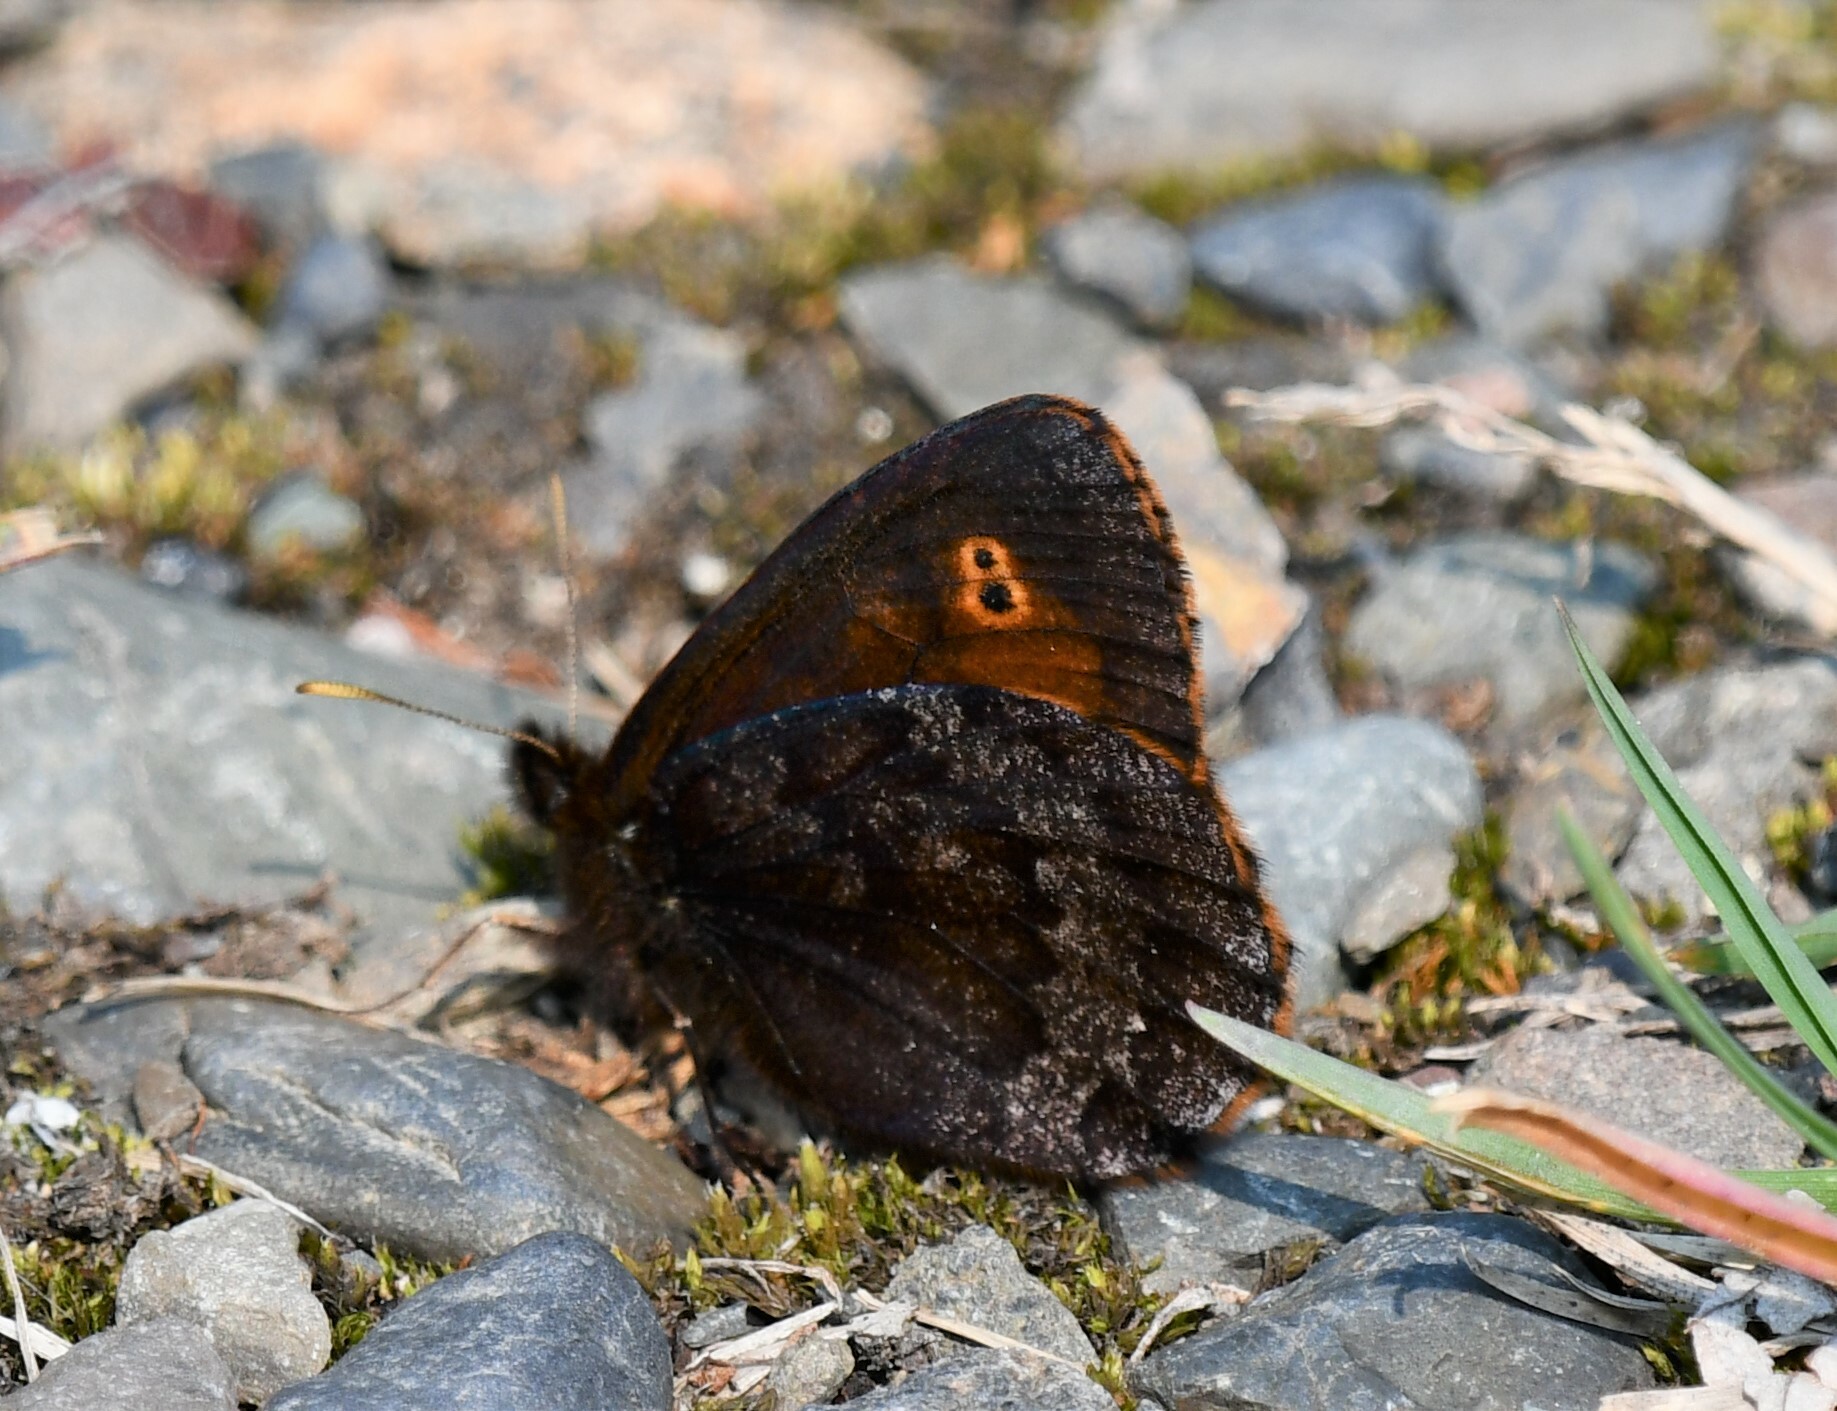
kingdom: Animalia
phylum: Arthropoda
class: Insecta
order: Lepidoptera
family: Nymphalidae
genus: Erebia
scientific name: Erebia rossii
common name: Ross' alpine
